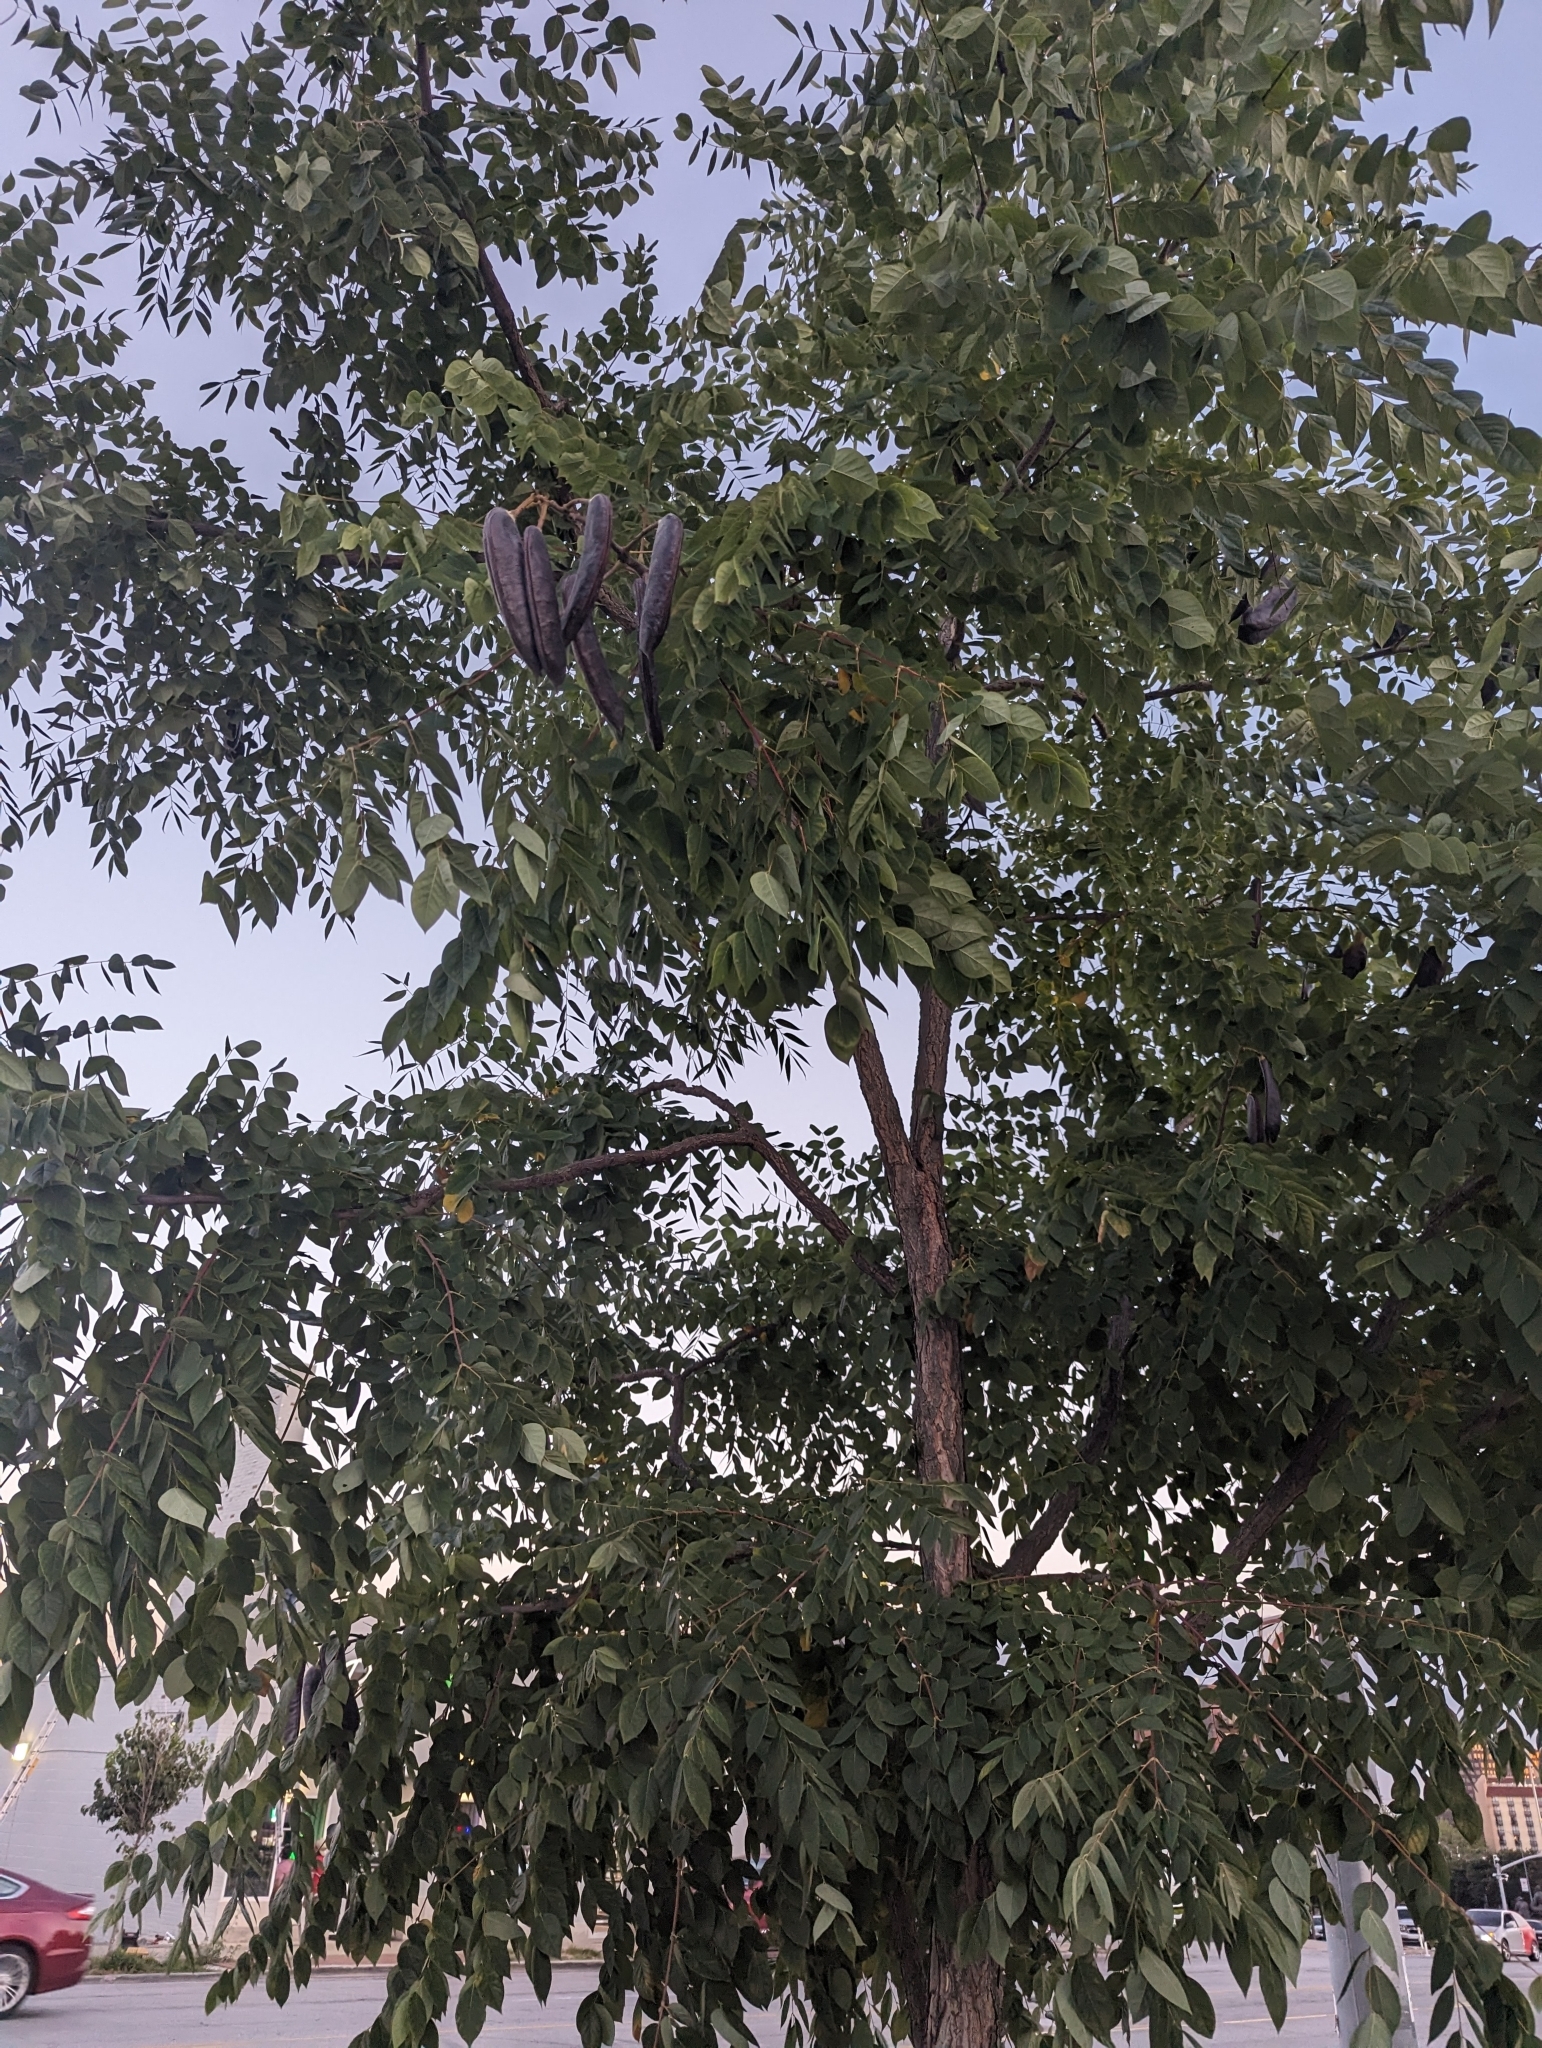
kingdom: Plantae
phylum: Tracheophyta
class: Magnoliopsida
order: Fabales
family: Fabaceae
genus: Gymnocladus
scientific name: Gymnocladus dioicus
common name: Kentucky coffee-tree
